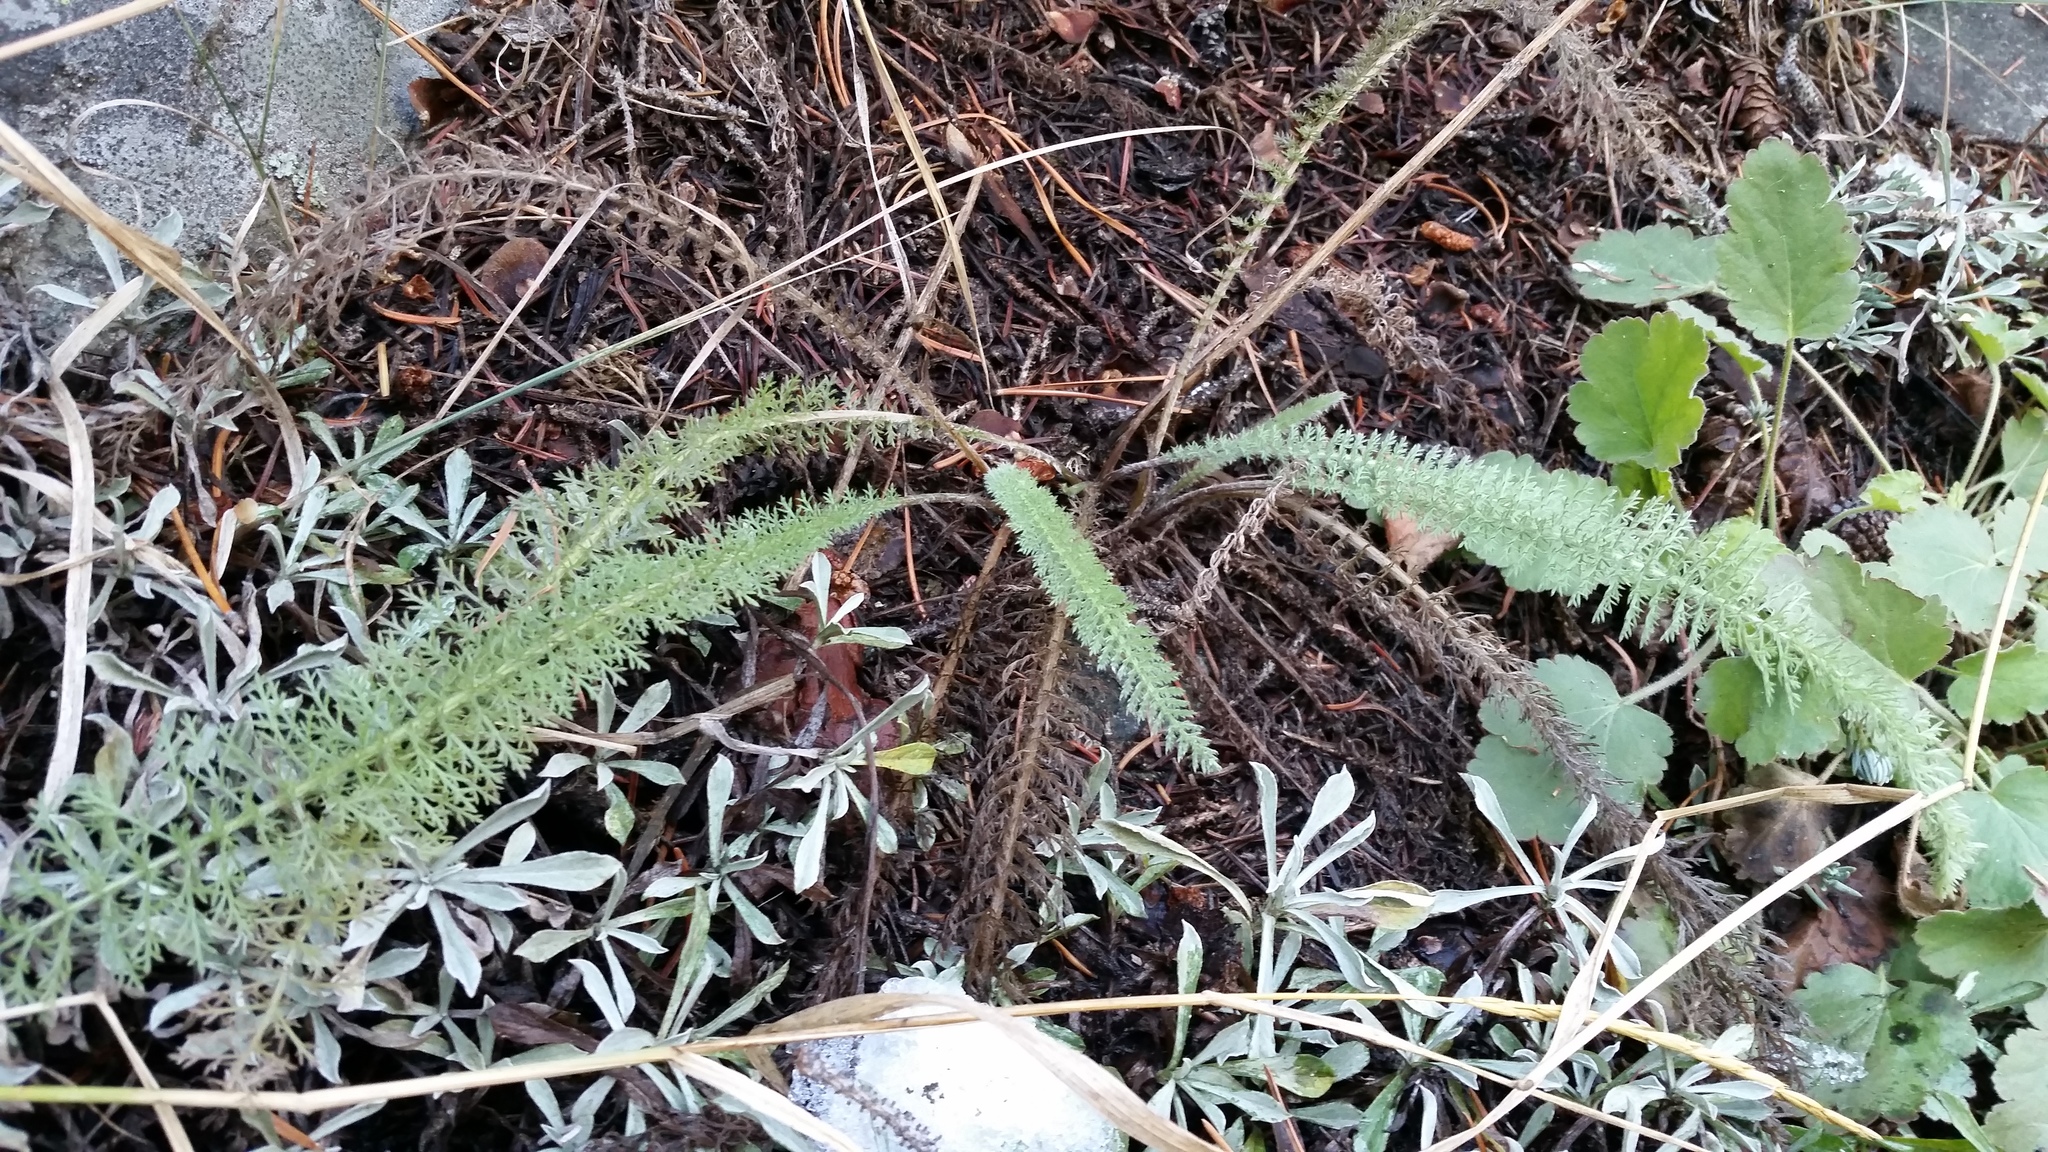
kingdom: Plantae
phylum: Tracheophyta
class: Magnoliopsida
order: Asterales
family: Asteraceae
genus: Achillea
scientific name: Achillea millefolium
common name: Yarrow
